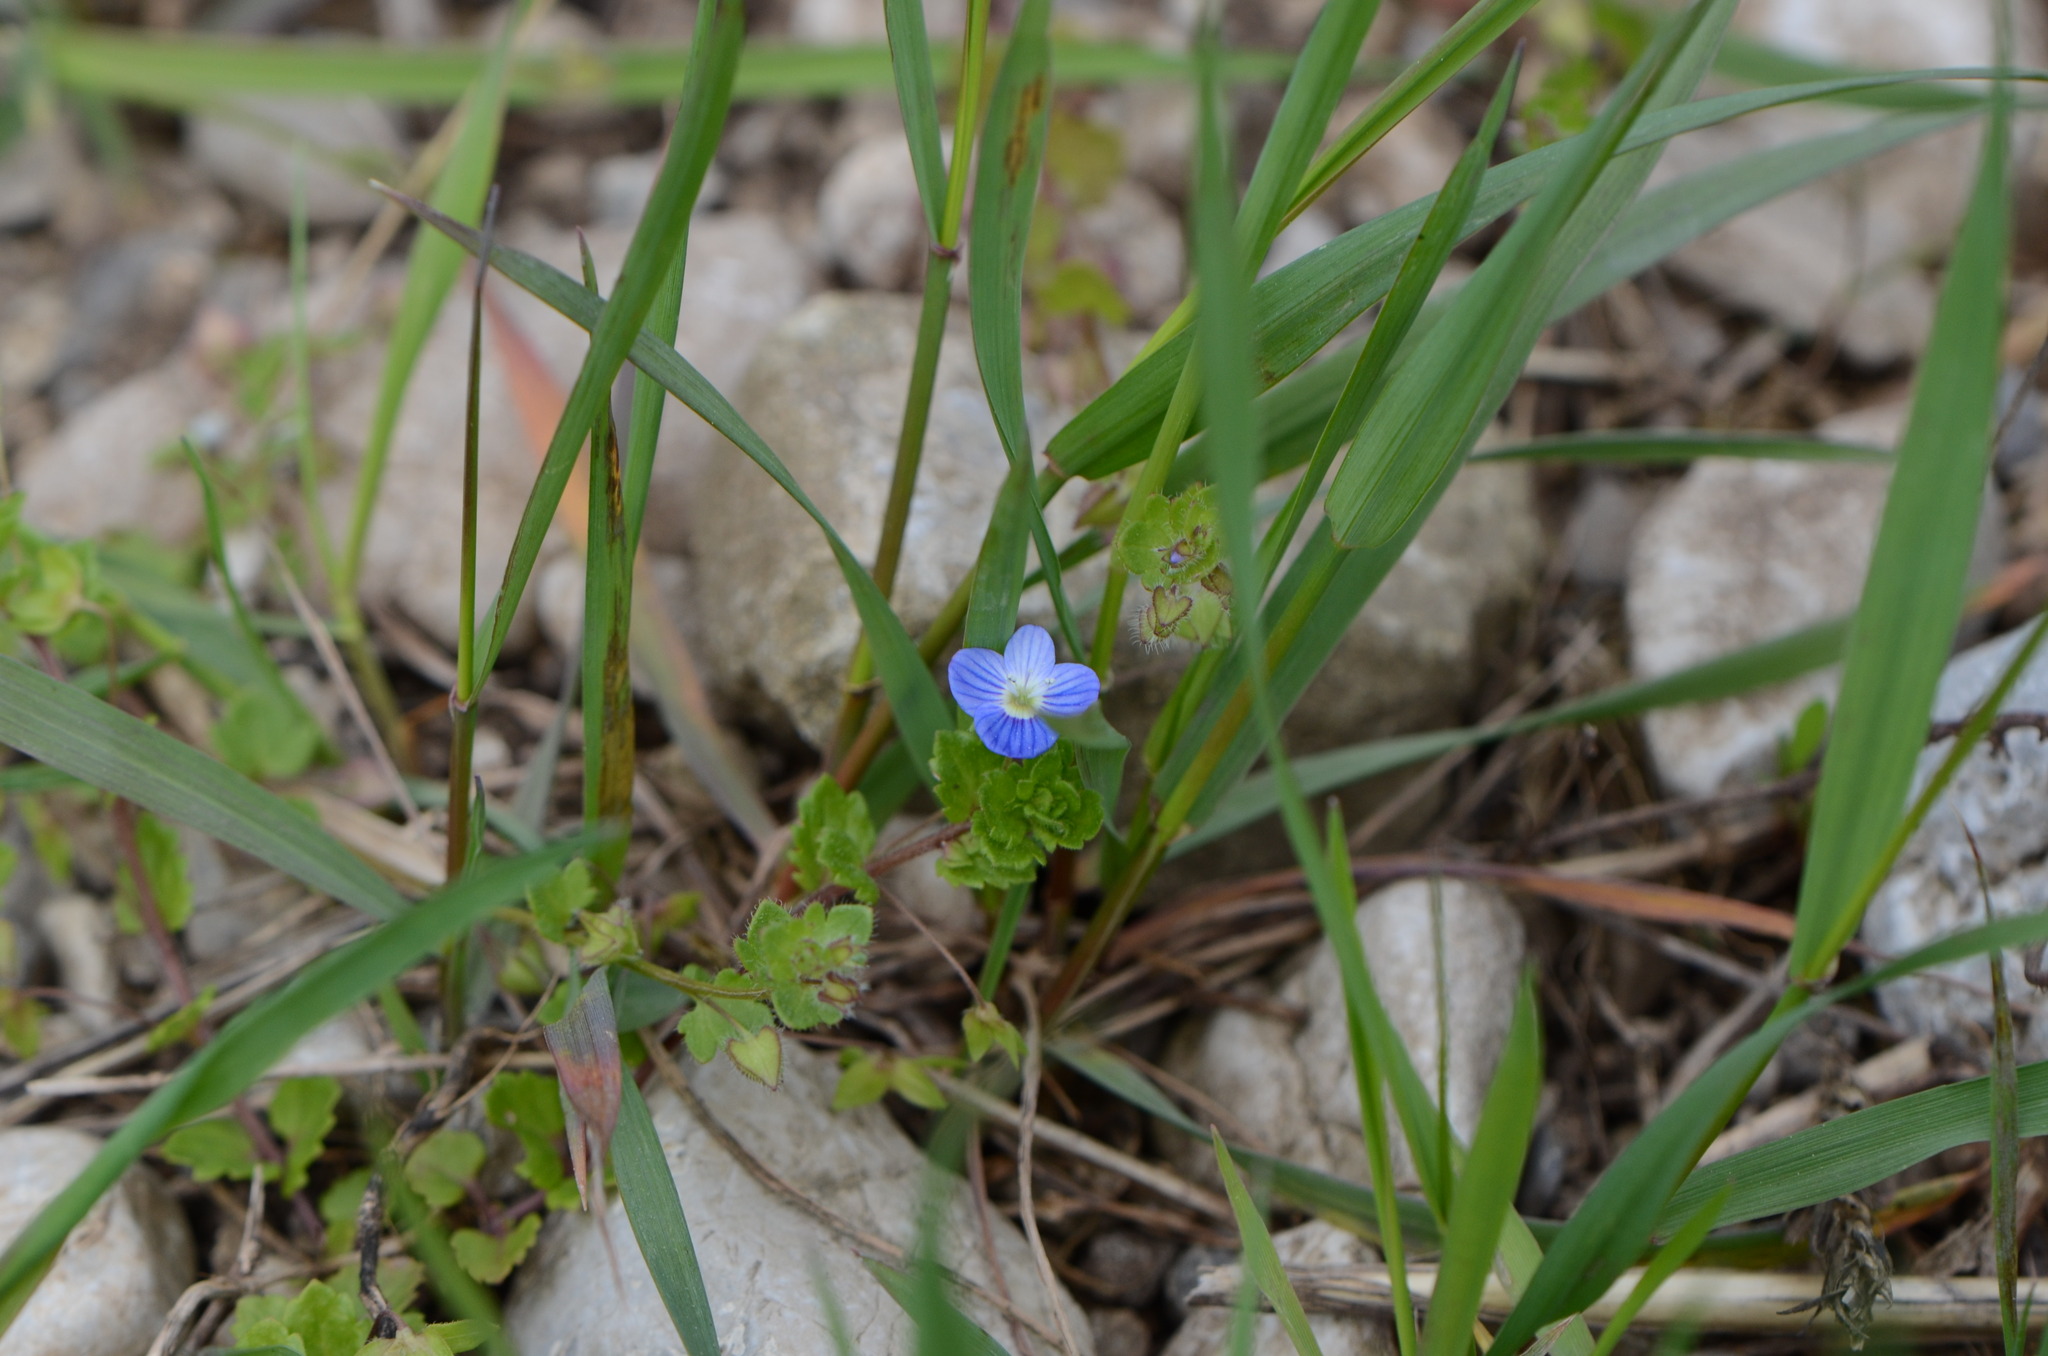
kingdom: Plantae
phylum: Tracheophyta
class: Magnoliopsida
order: Lamiales
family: Plantaginaceae
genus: Veronica
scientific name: Veronica persica
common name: Common field-speedwell
